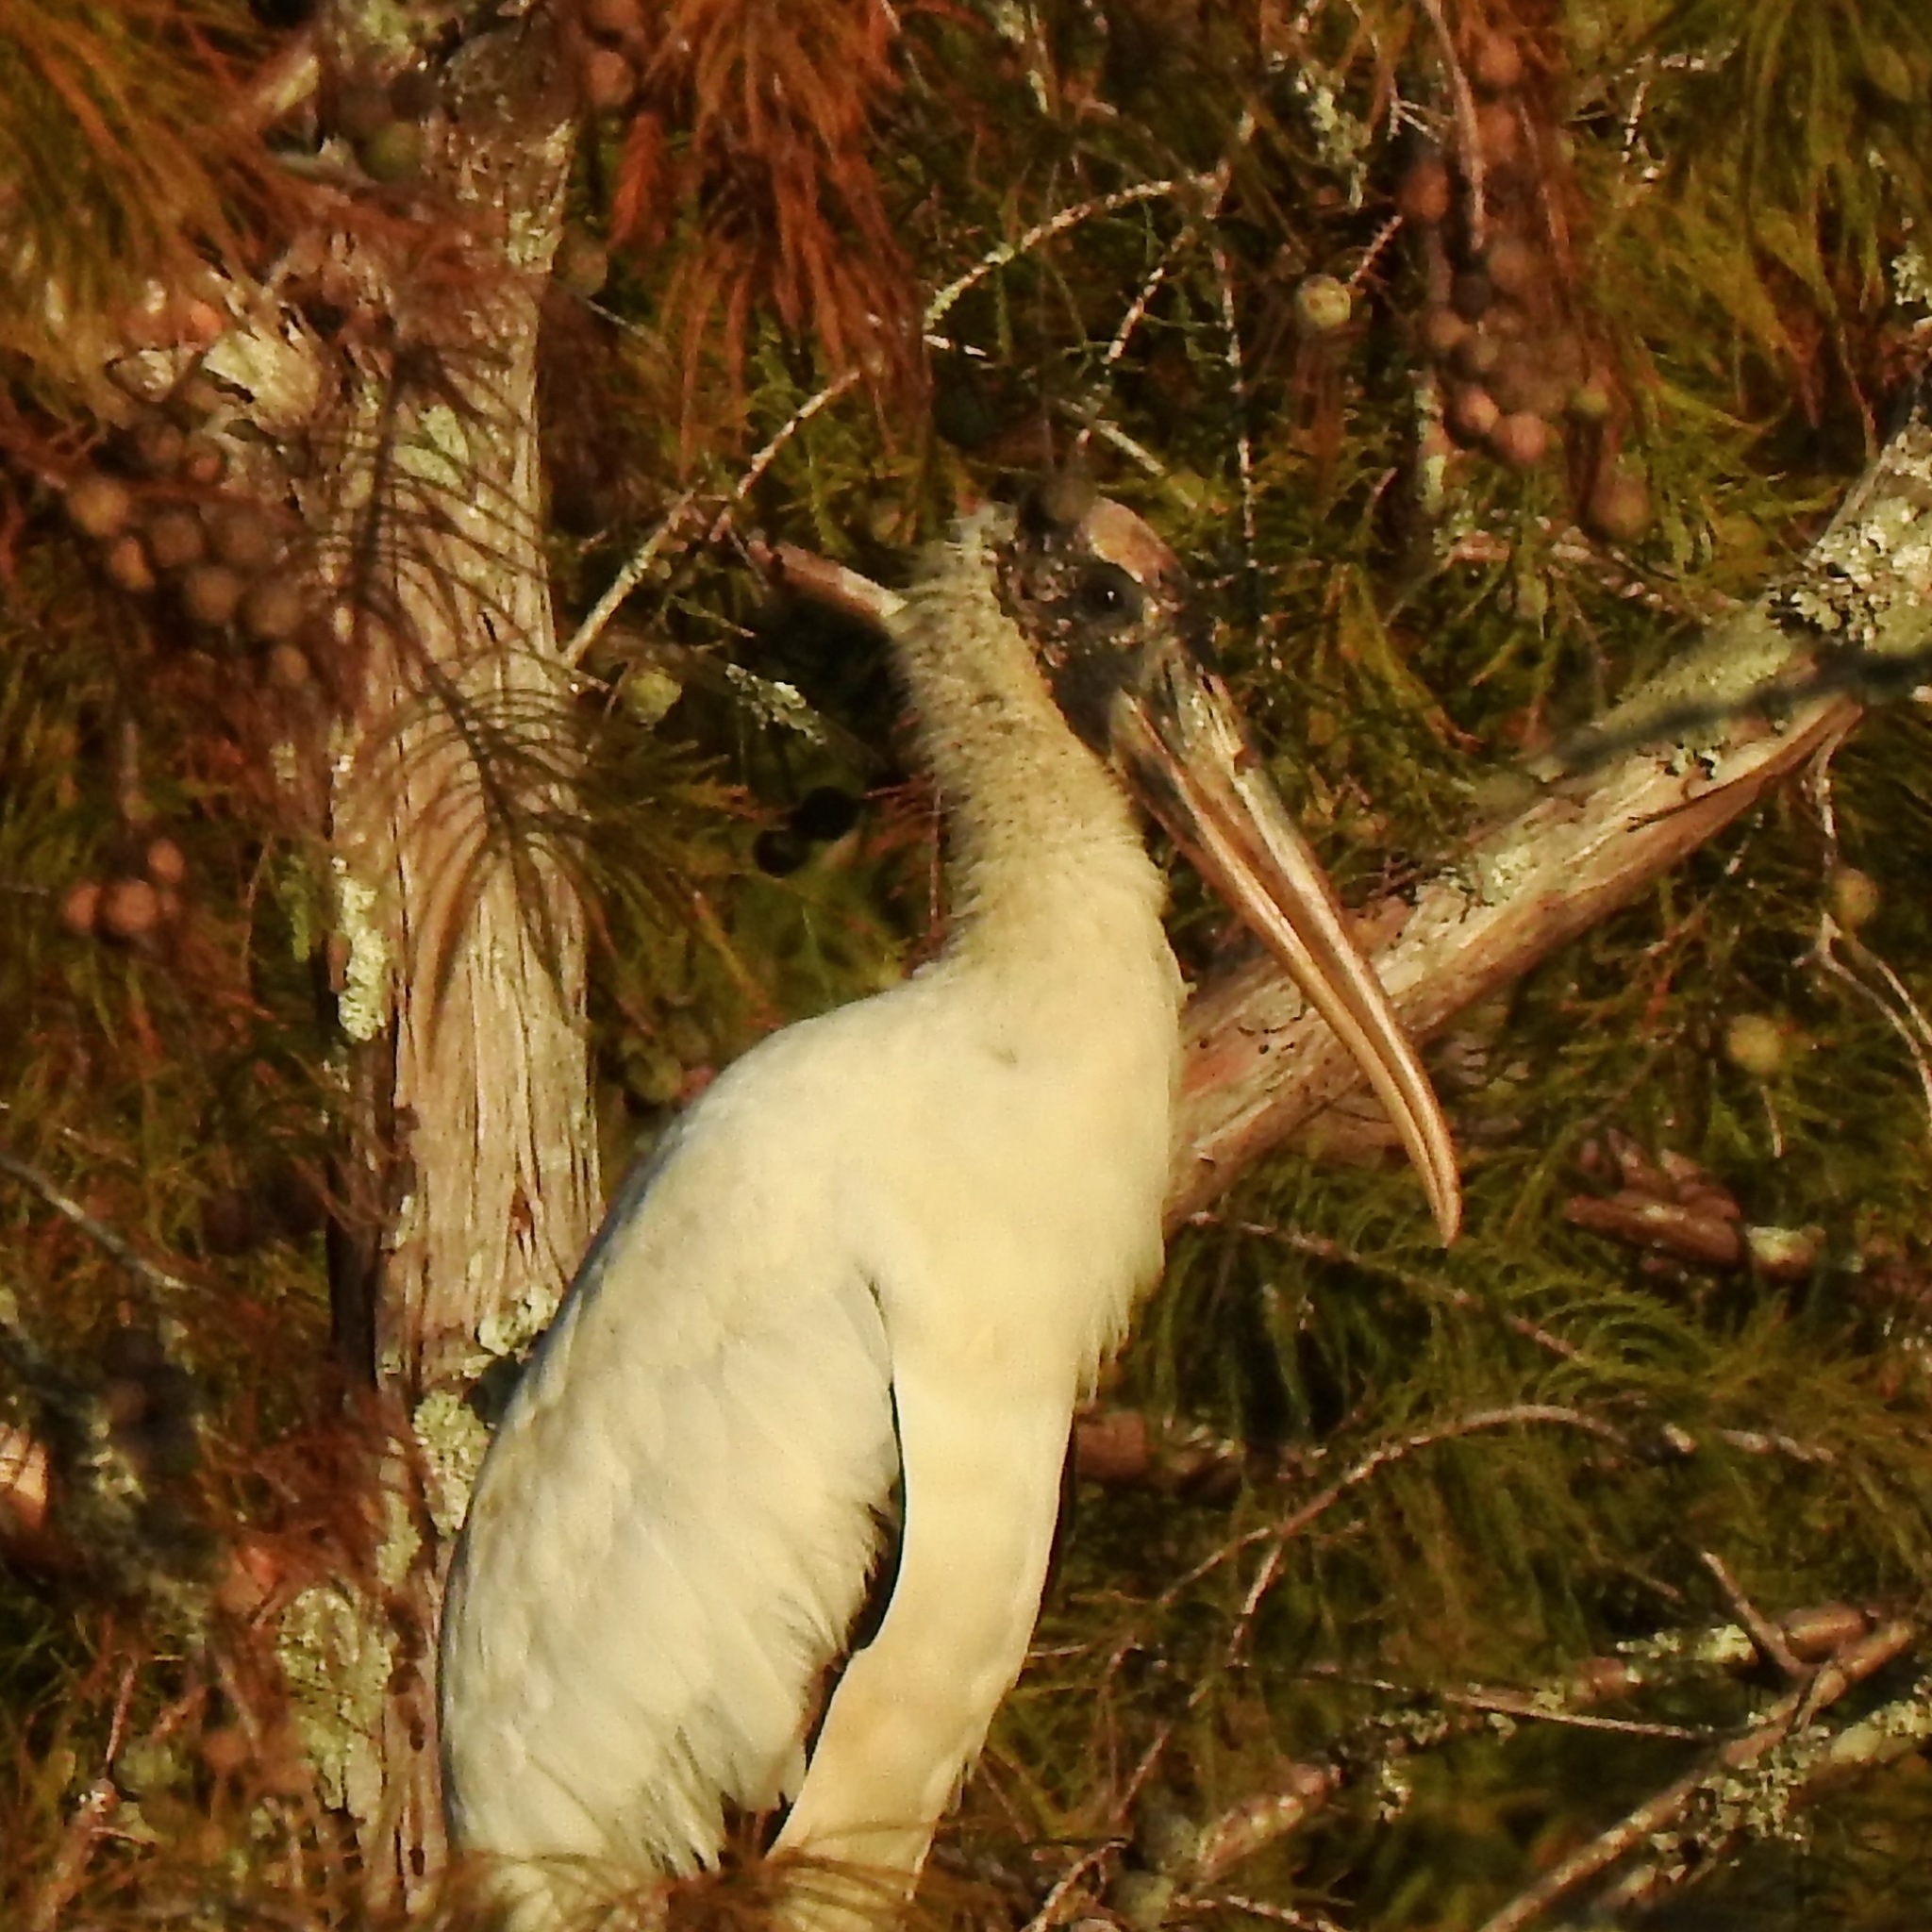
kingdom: Animalia
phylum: Chordata
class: Aves
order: Ciconiiformes
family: Ciconiidae
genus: Mycteria
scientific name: Mycteria americana
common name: Wood stork
